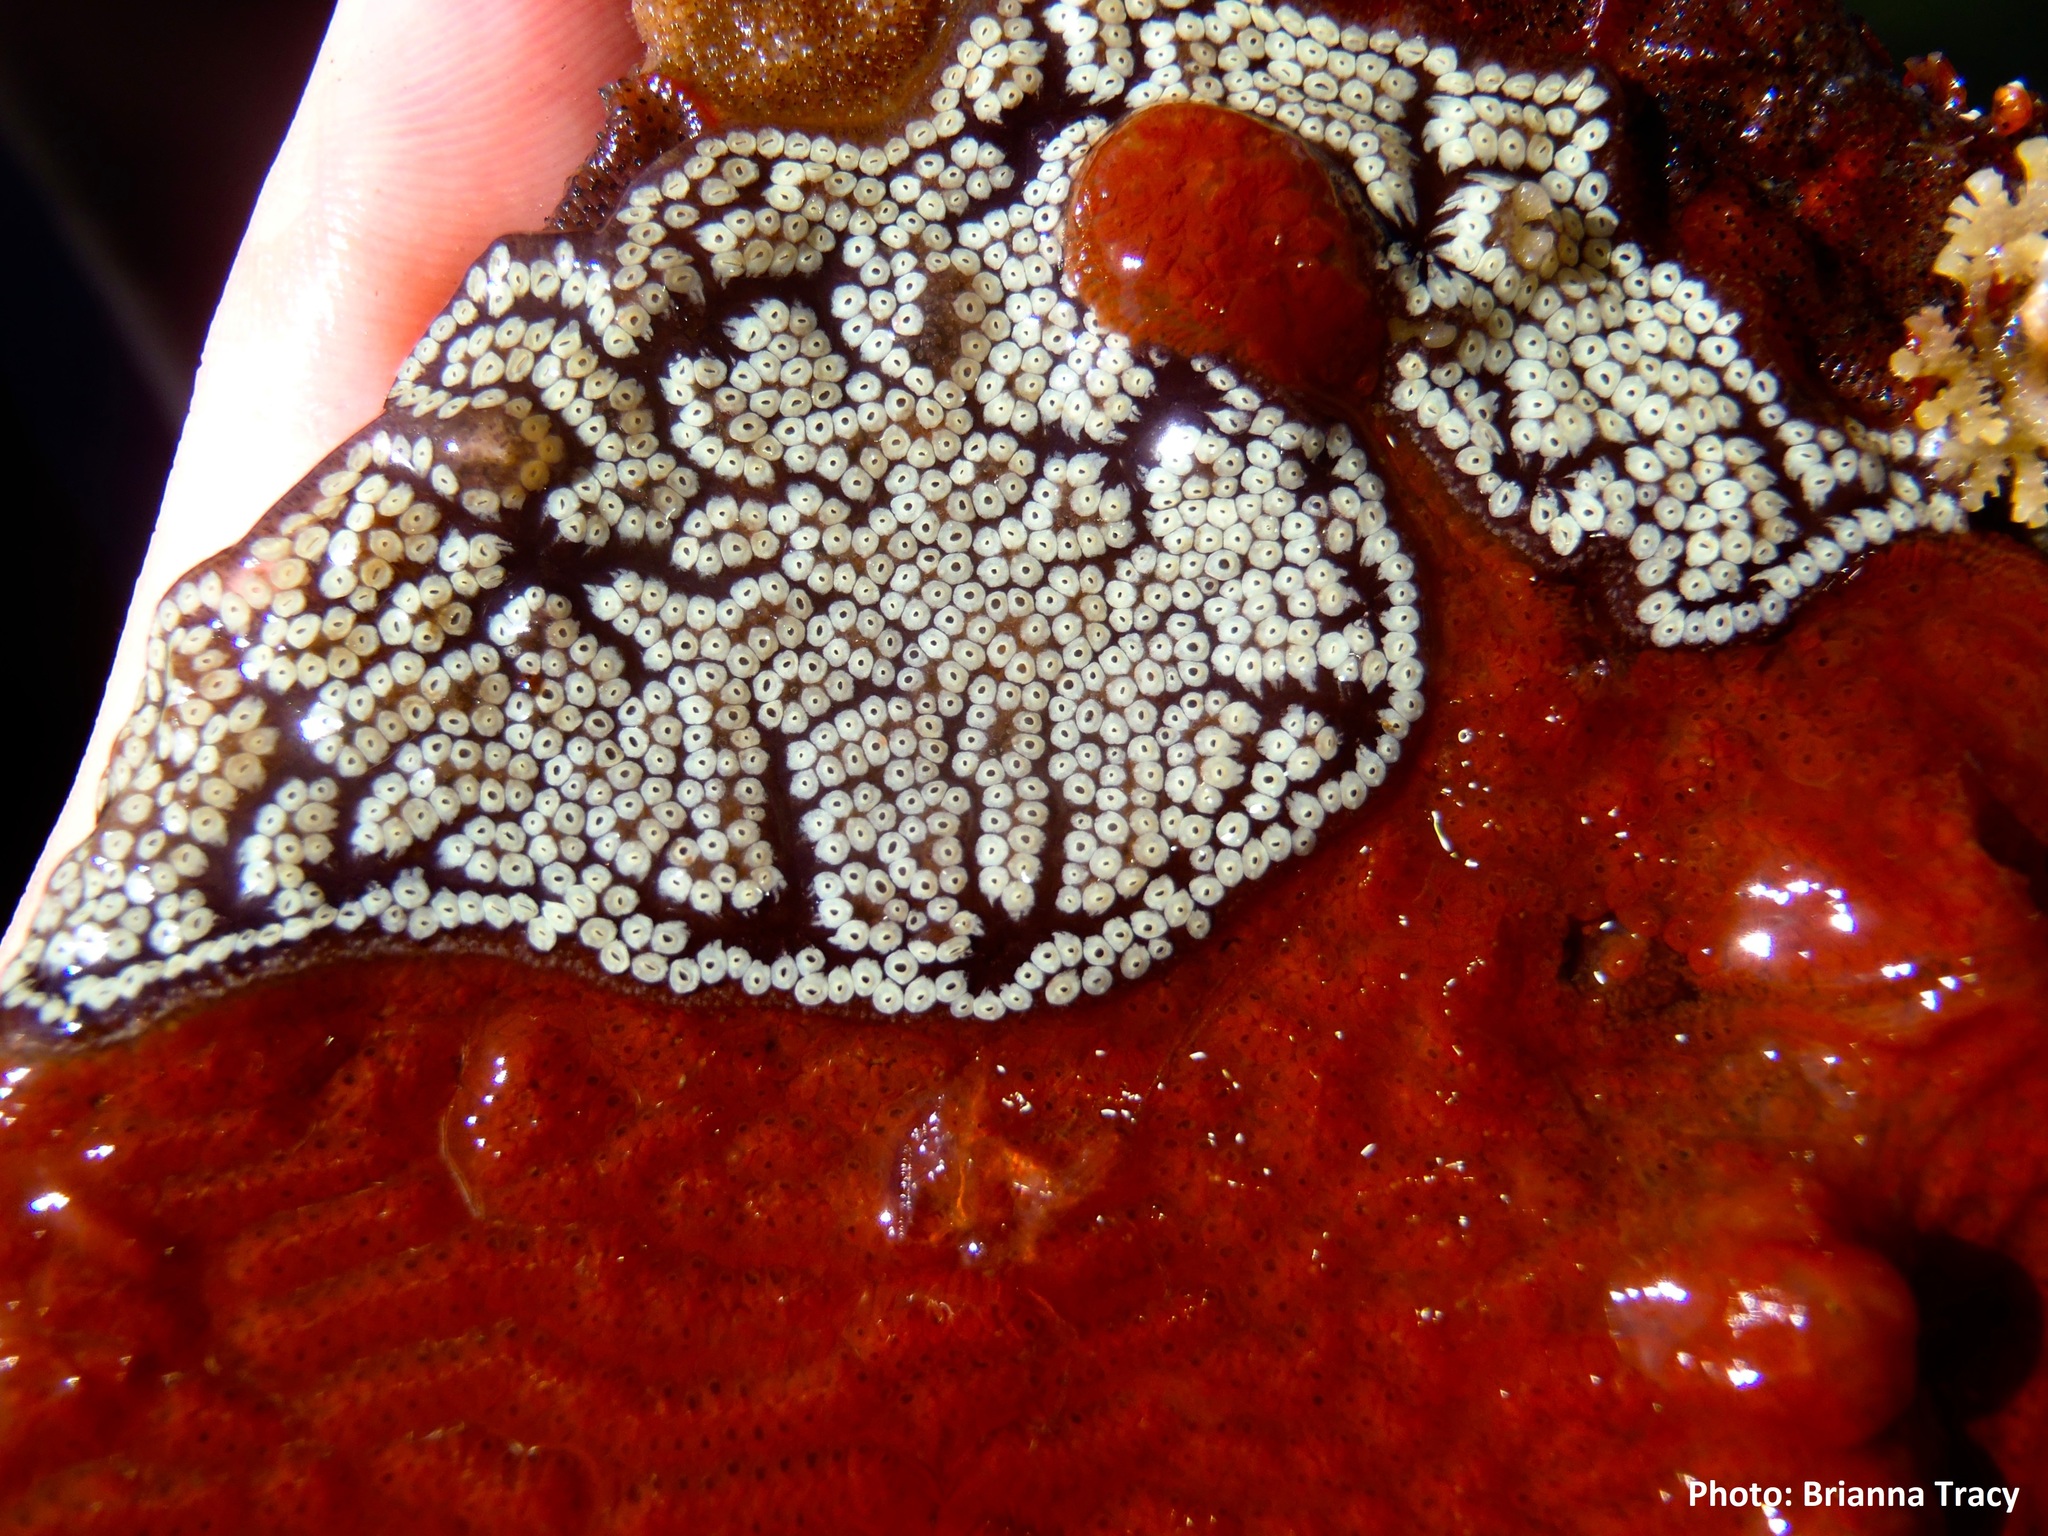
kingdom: Animalia
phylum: Chordata
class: Ascidiacea
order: Stolidobranchia
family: Styelidae
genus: Botrylloides
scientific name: Botrylloides diegensis
